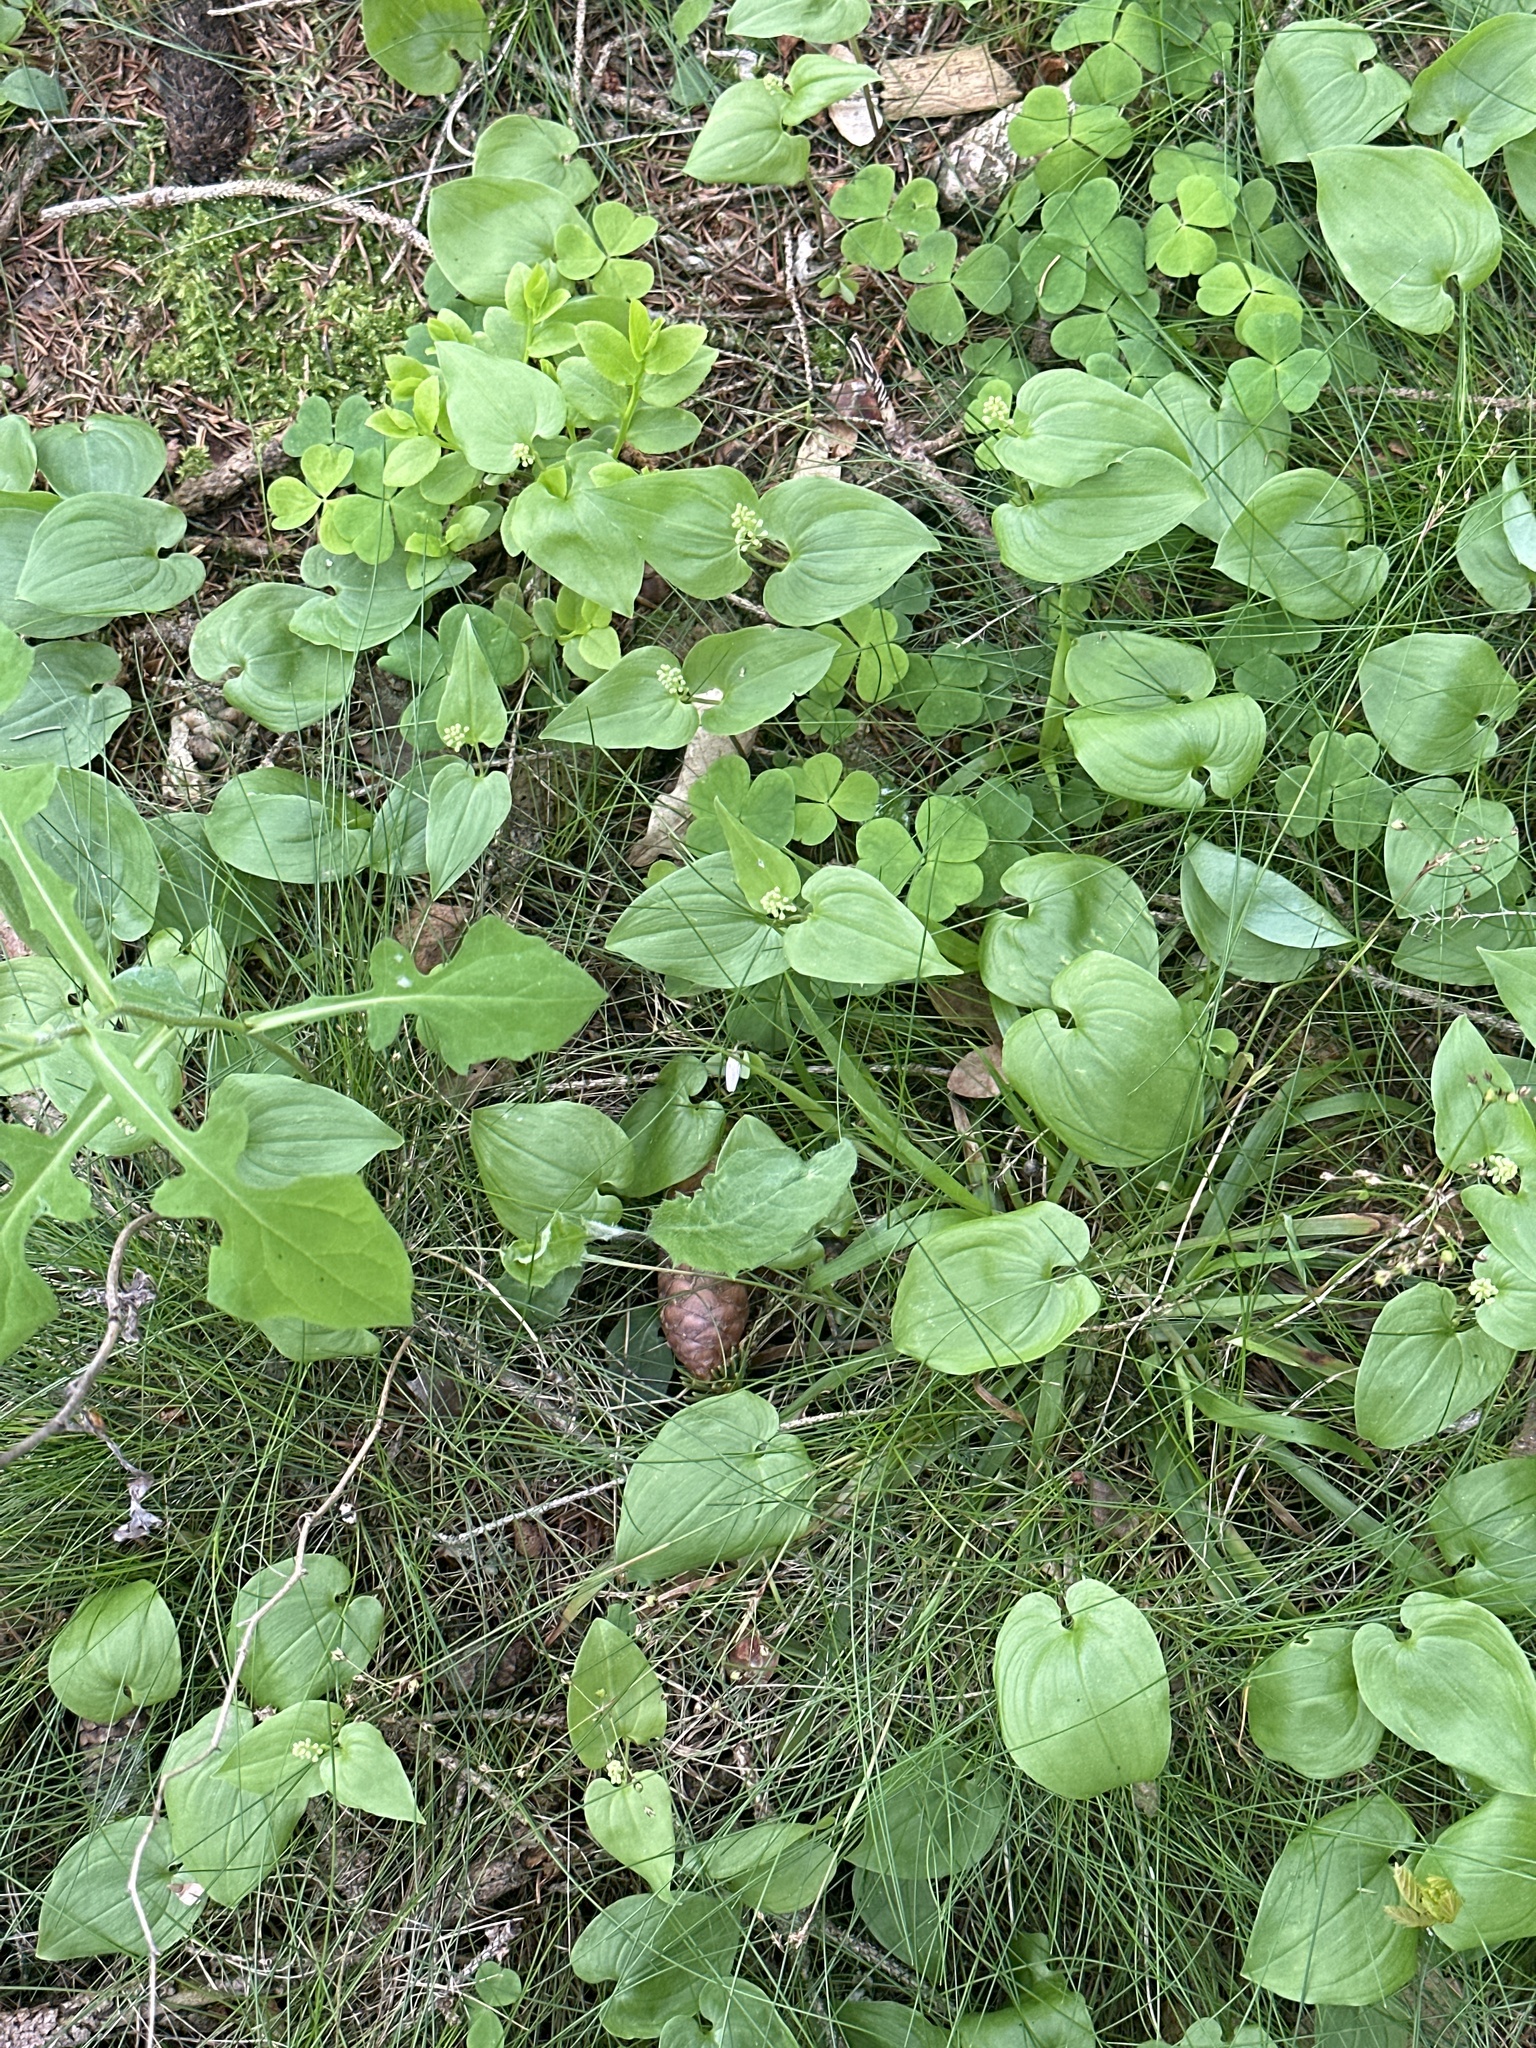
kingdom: Plantae
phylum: Tracheophyta
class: Liliopsida
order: Asparagales
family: Asparagaceae
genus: Maianthemum
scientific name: Maianthemum bifolium
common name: May lily
